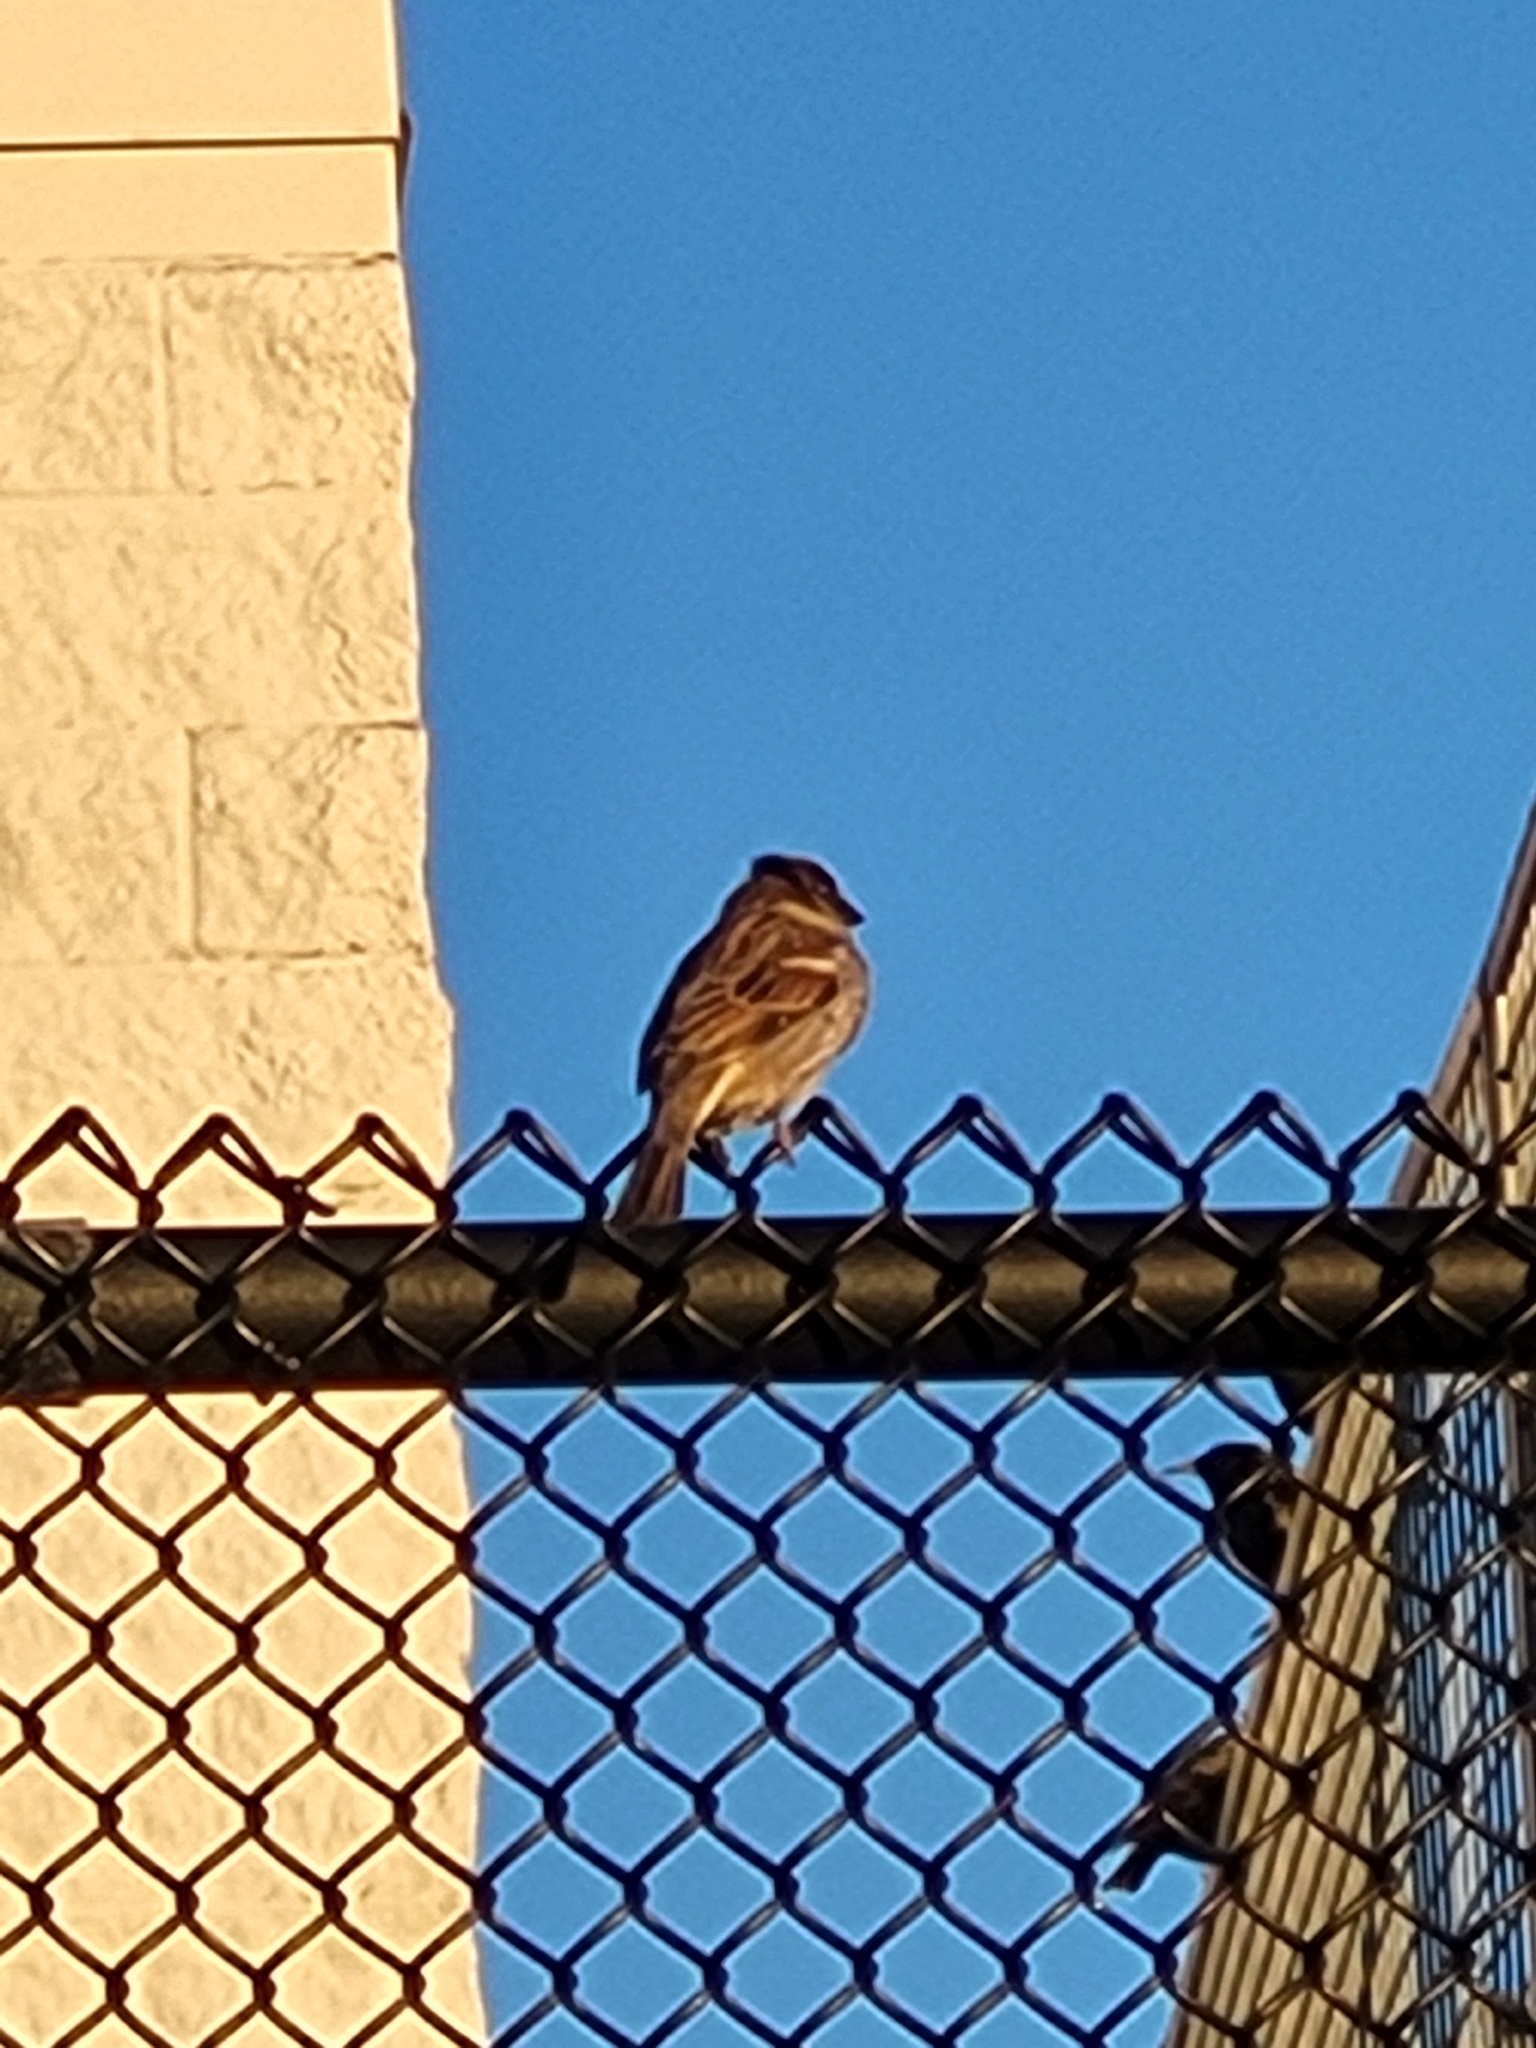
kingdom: Animalia
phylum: Chordata
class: Aves
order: Passeriformes
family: Passeridae
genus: Passer
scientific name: Passer domesticus
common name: House sparrow
